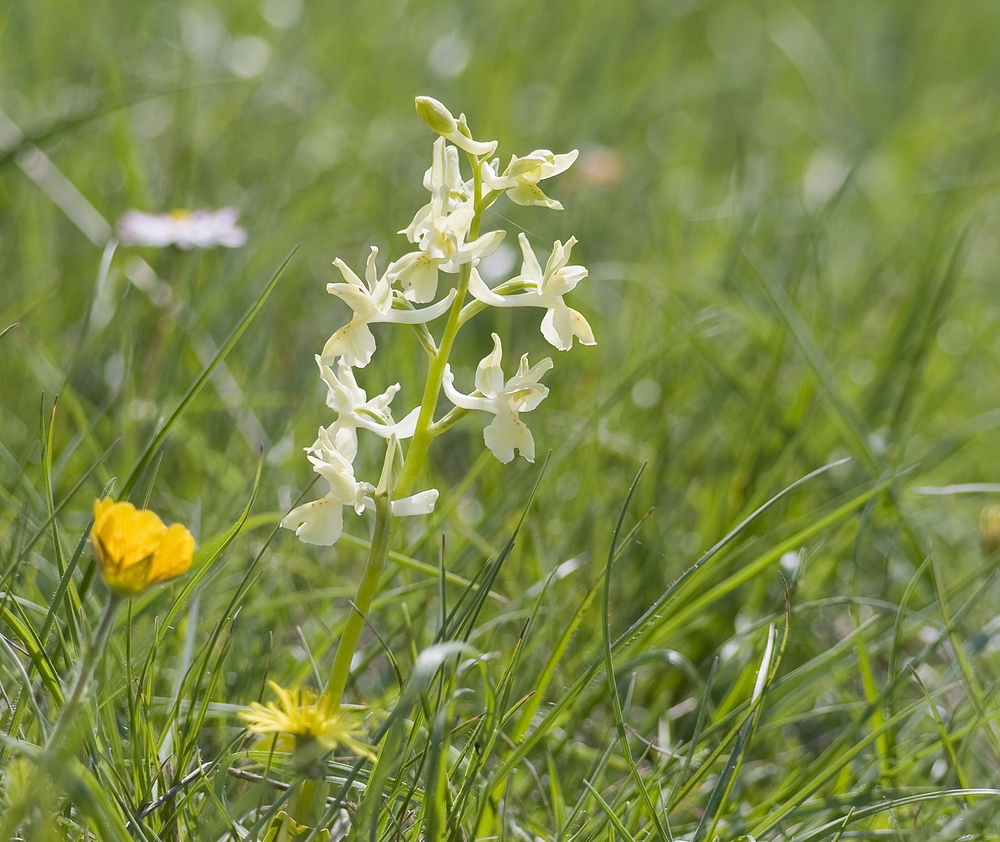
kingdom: Plantae
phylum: Tracheophyta
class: Liliopsida
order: Asparagales
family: Orchidaceae
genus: Orchis
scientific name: Orchis provincialis
